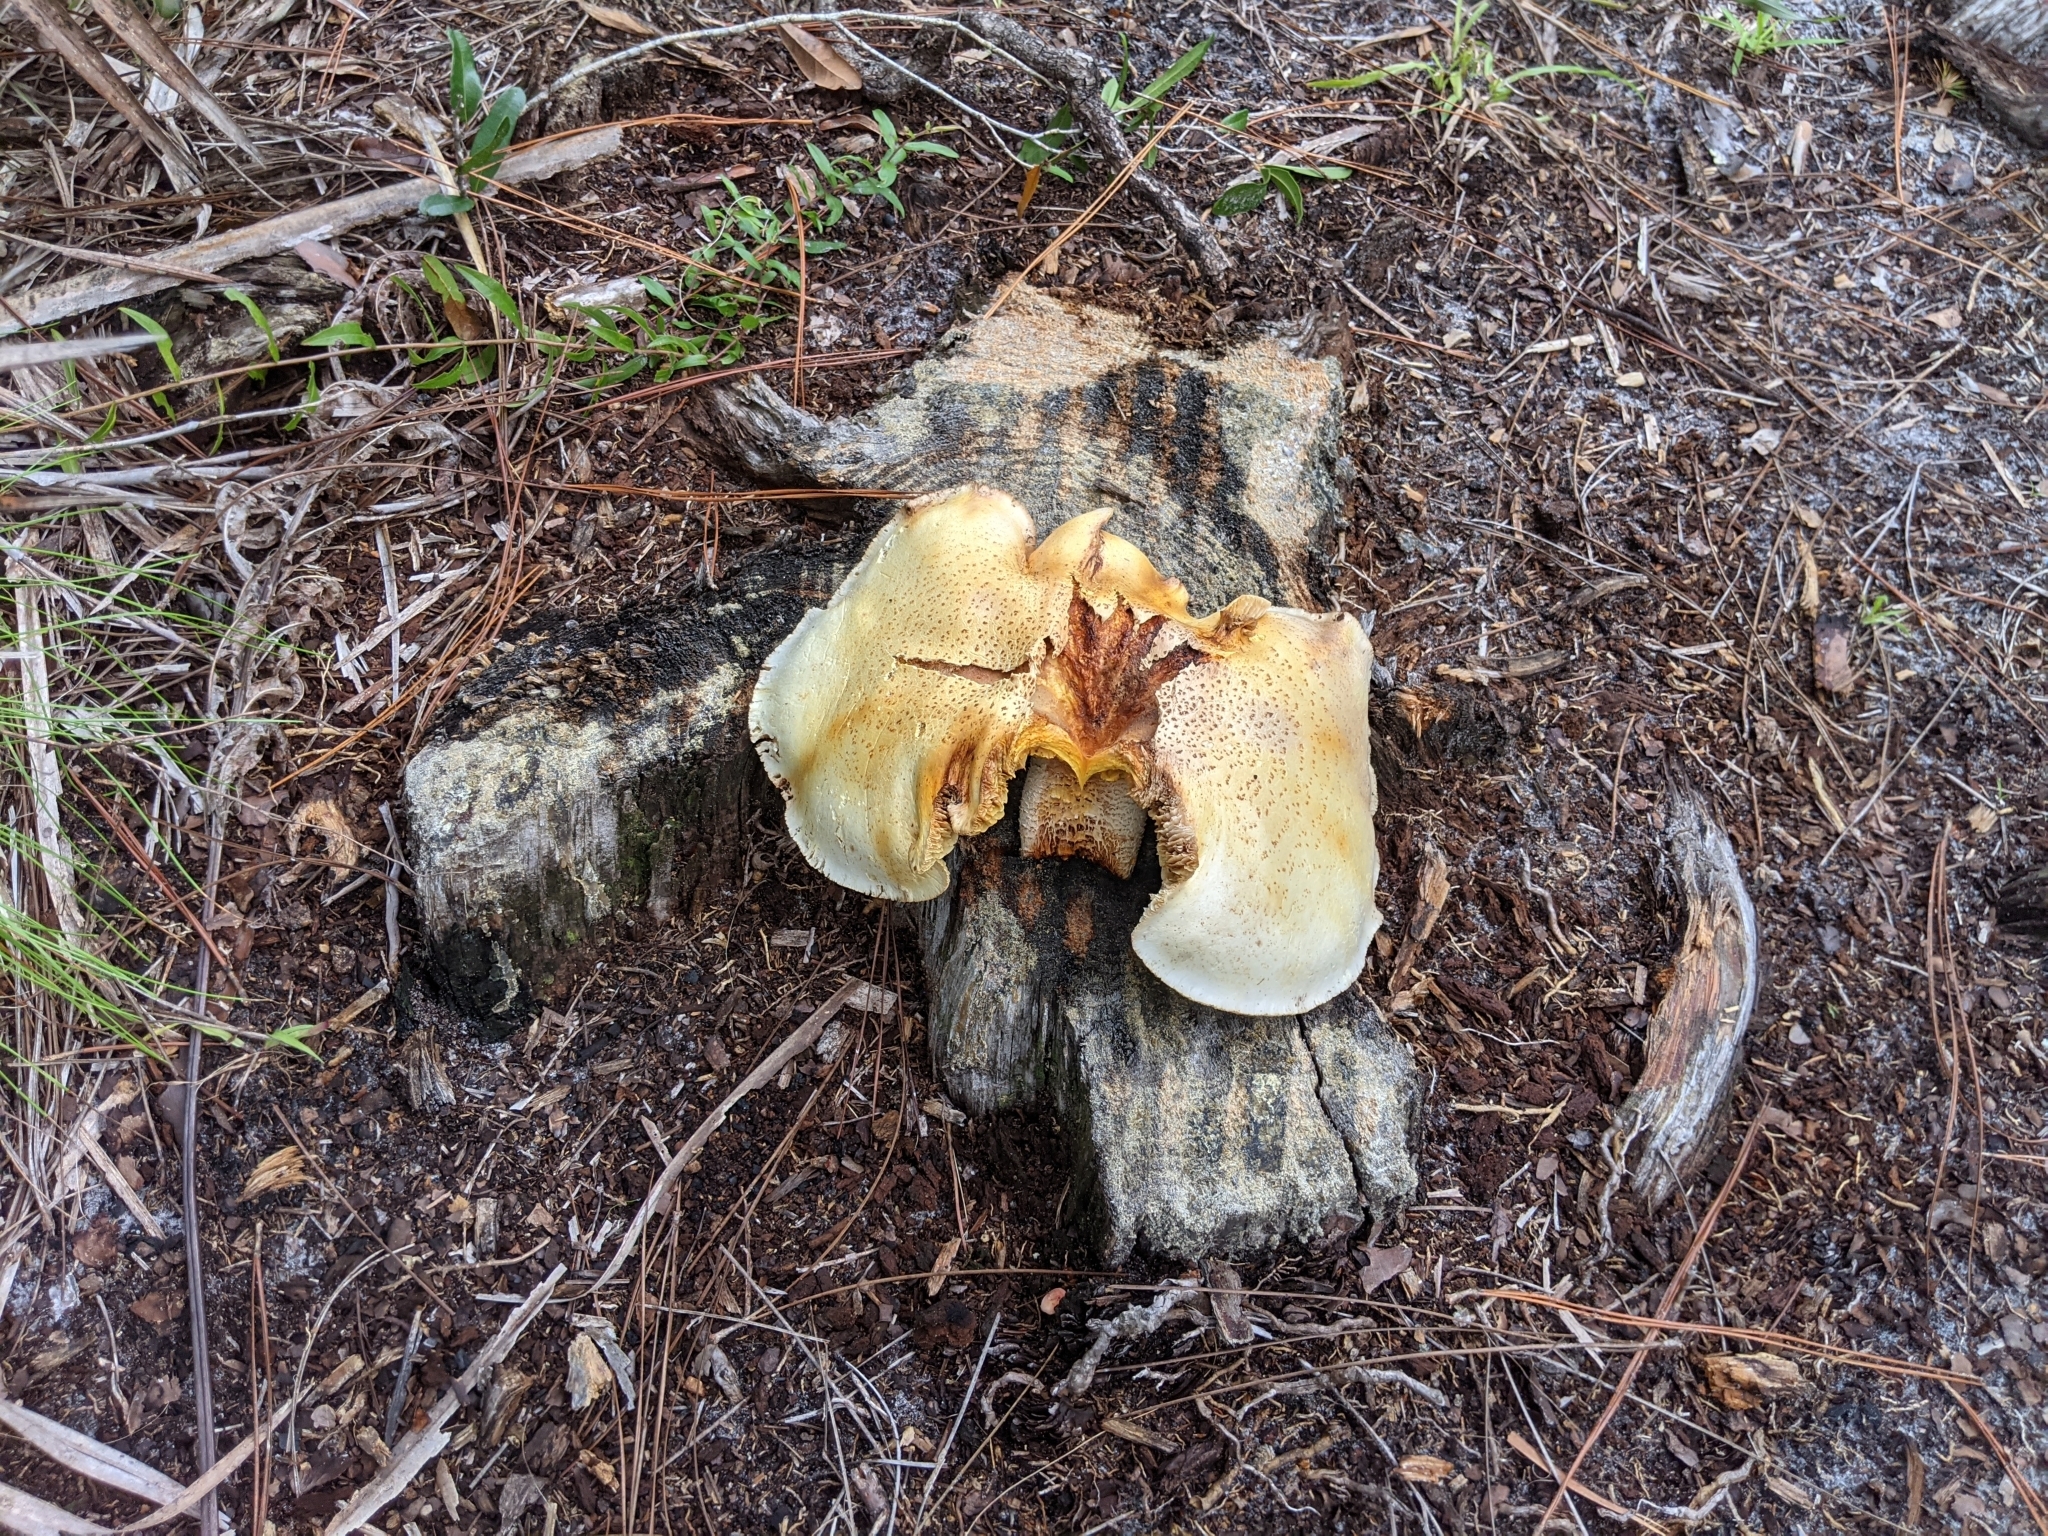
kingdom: Fungi
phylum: Basidiomycota
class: Agaricomycetes
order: Gloeophyllales
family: Gloeophyllaceae
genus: Neolentinus
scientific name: Neolentinus lepideus
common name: Scaly sawgill
